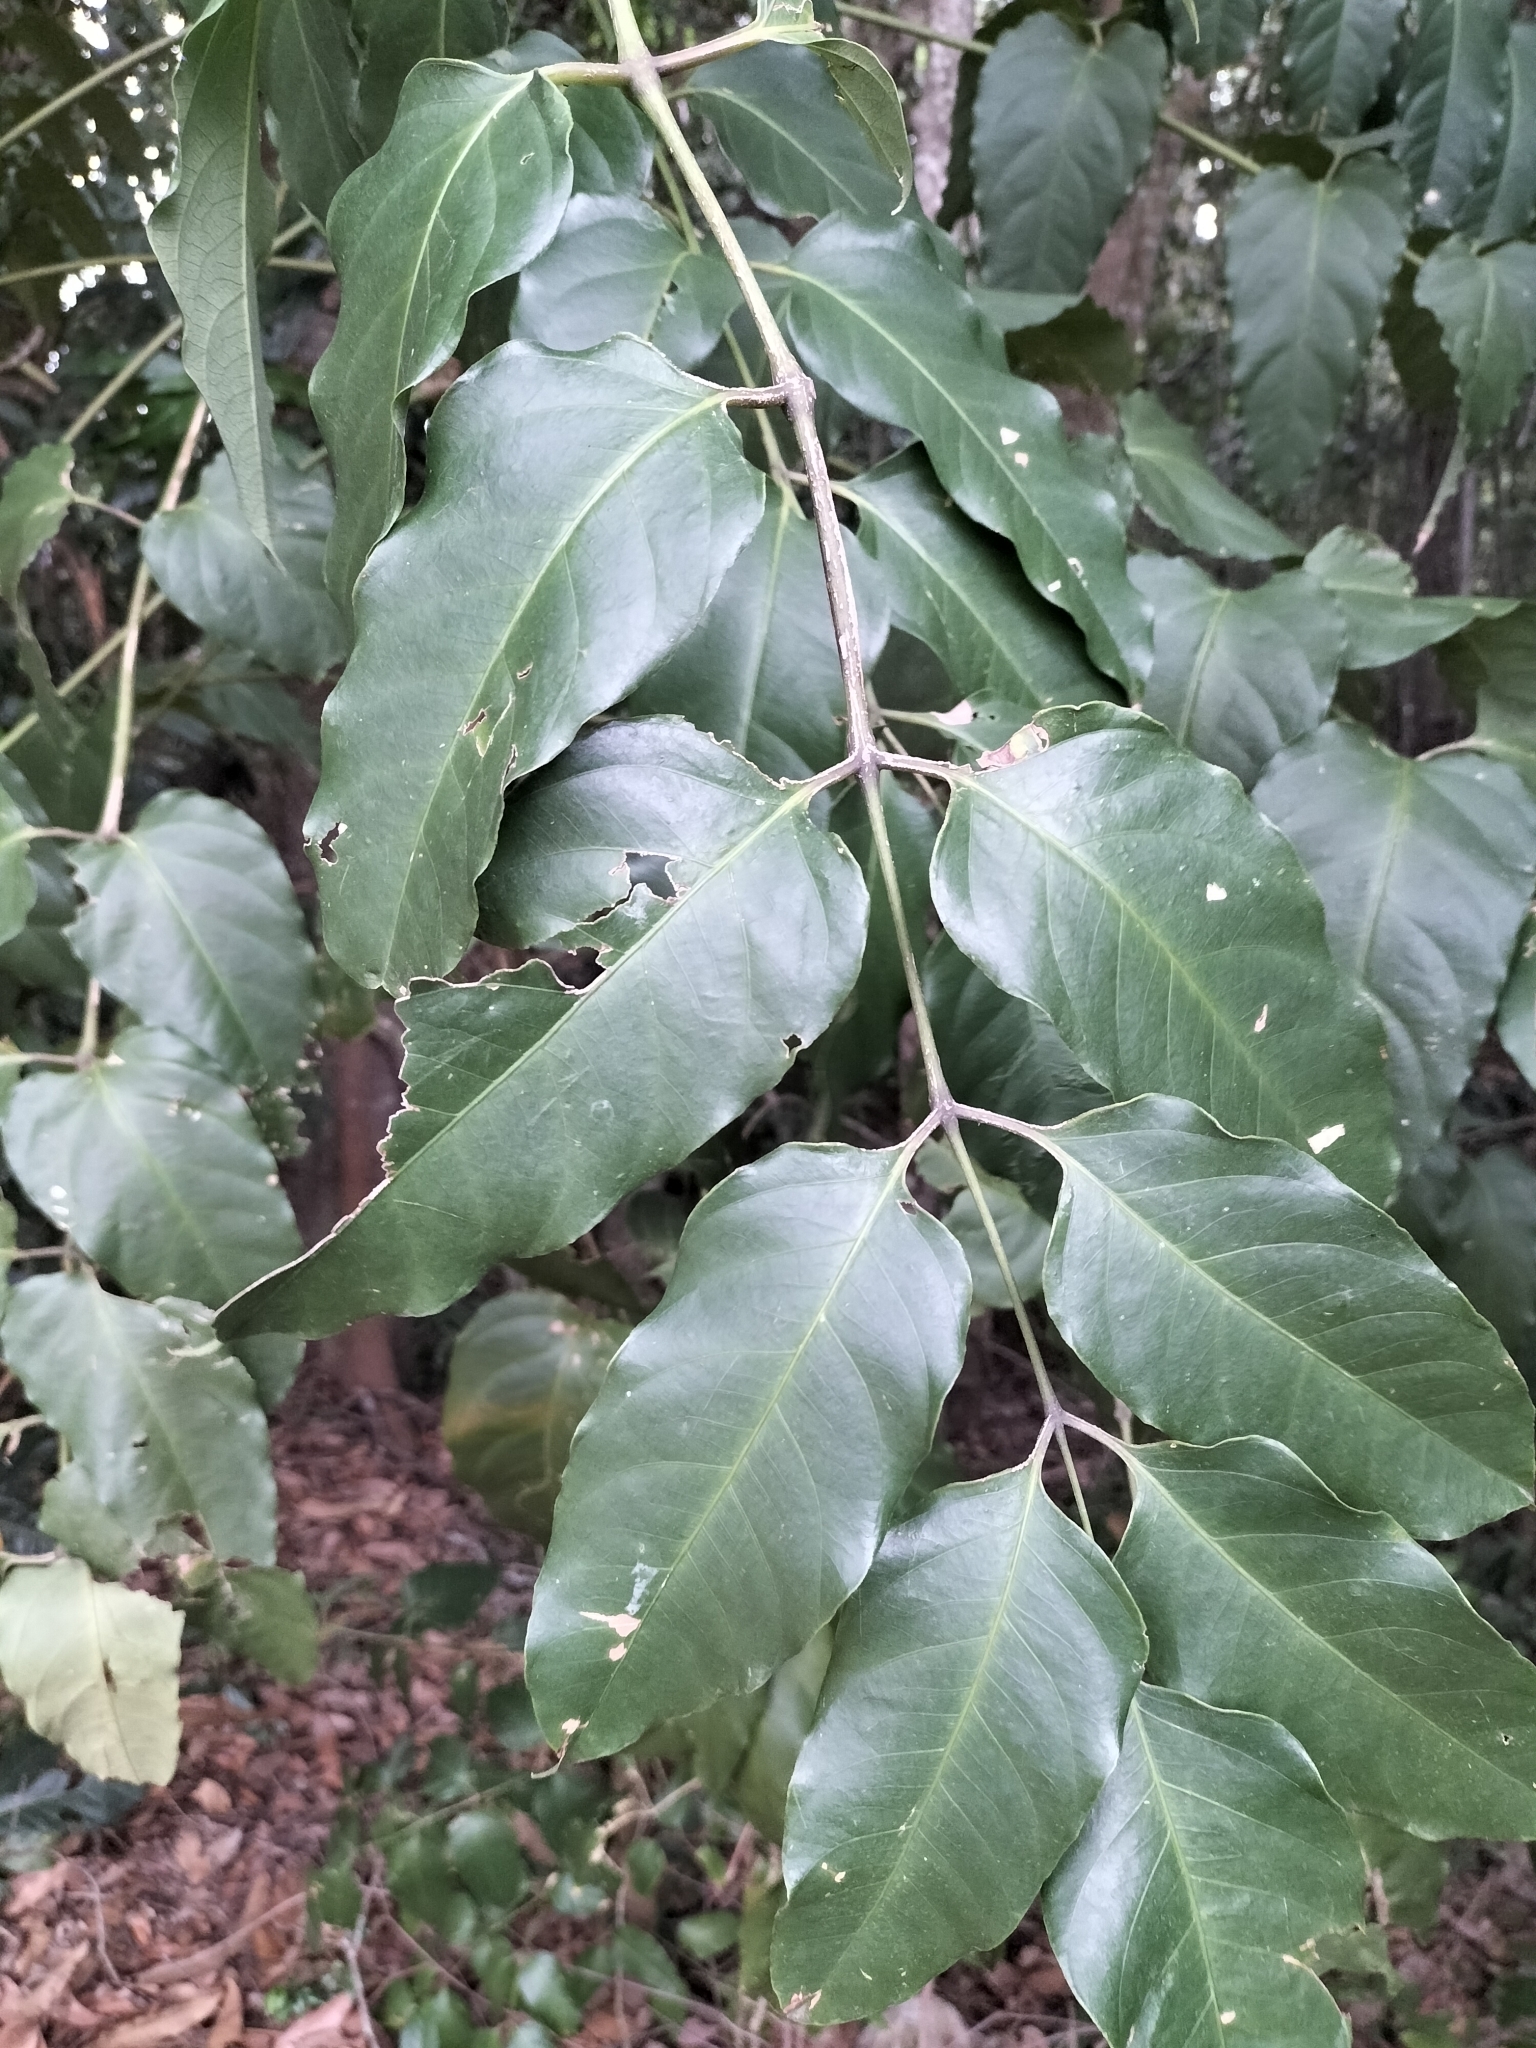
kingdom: Plantae
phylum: Tracheophyta
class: Magnoliopsida
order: Apiales
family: Araliaceae
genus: Polyscias
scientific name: Polyscias australiana
